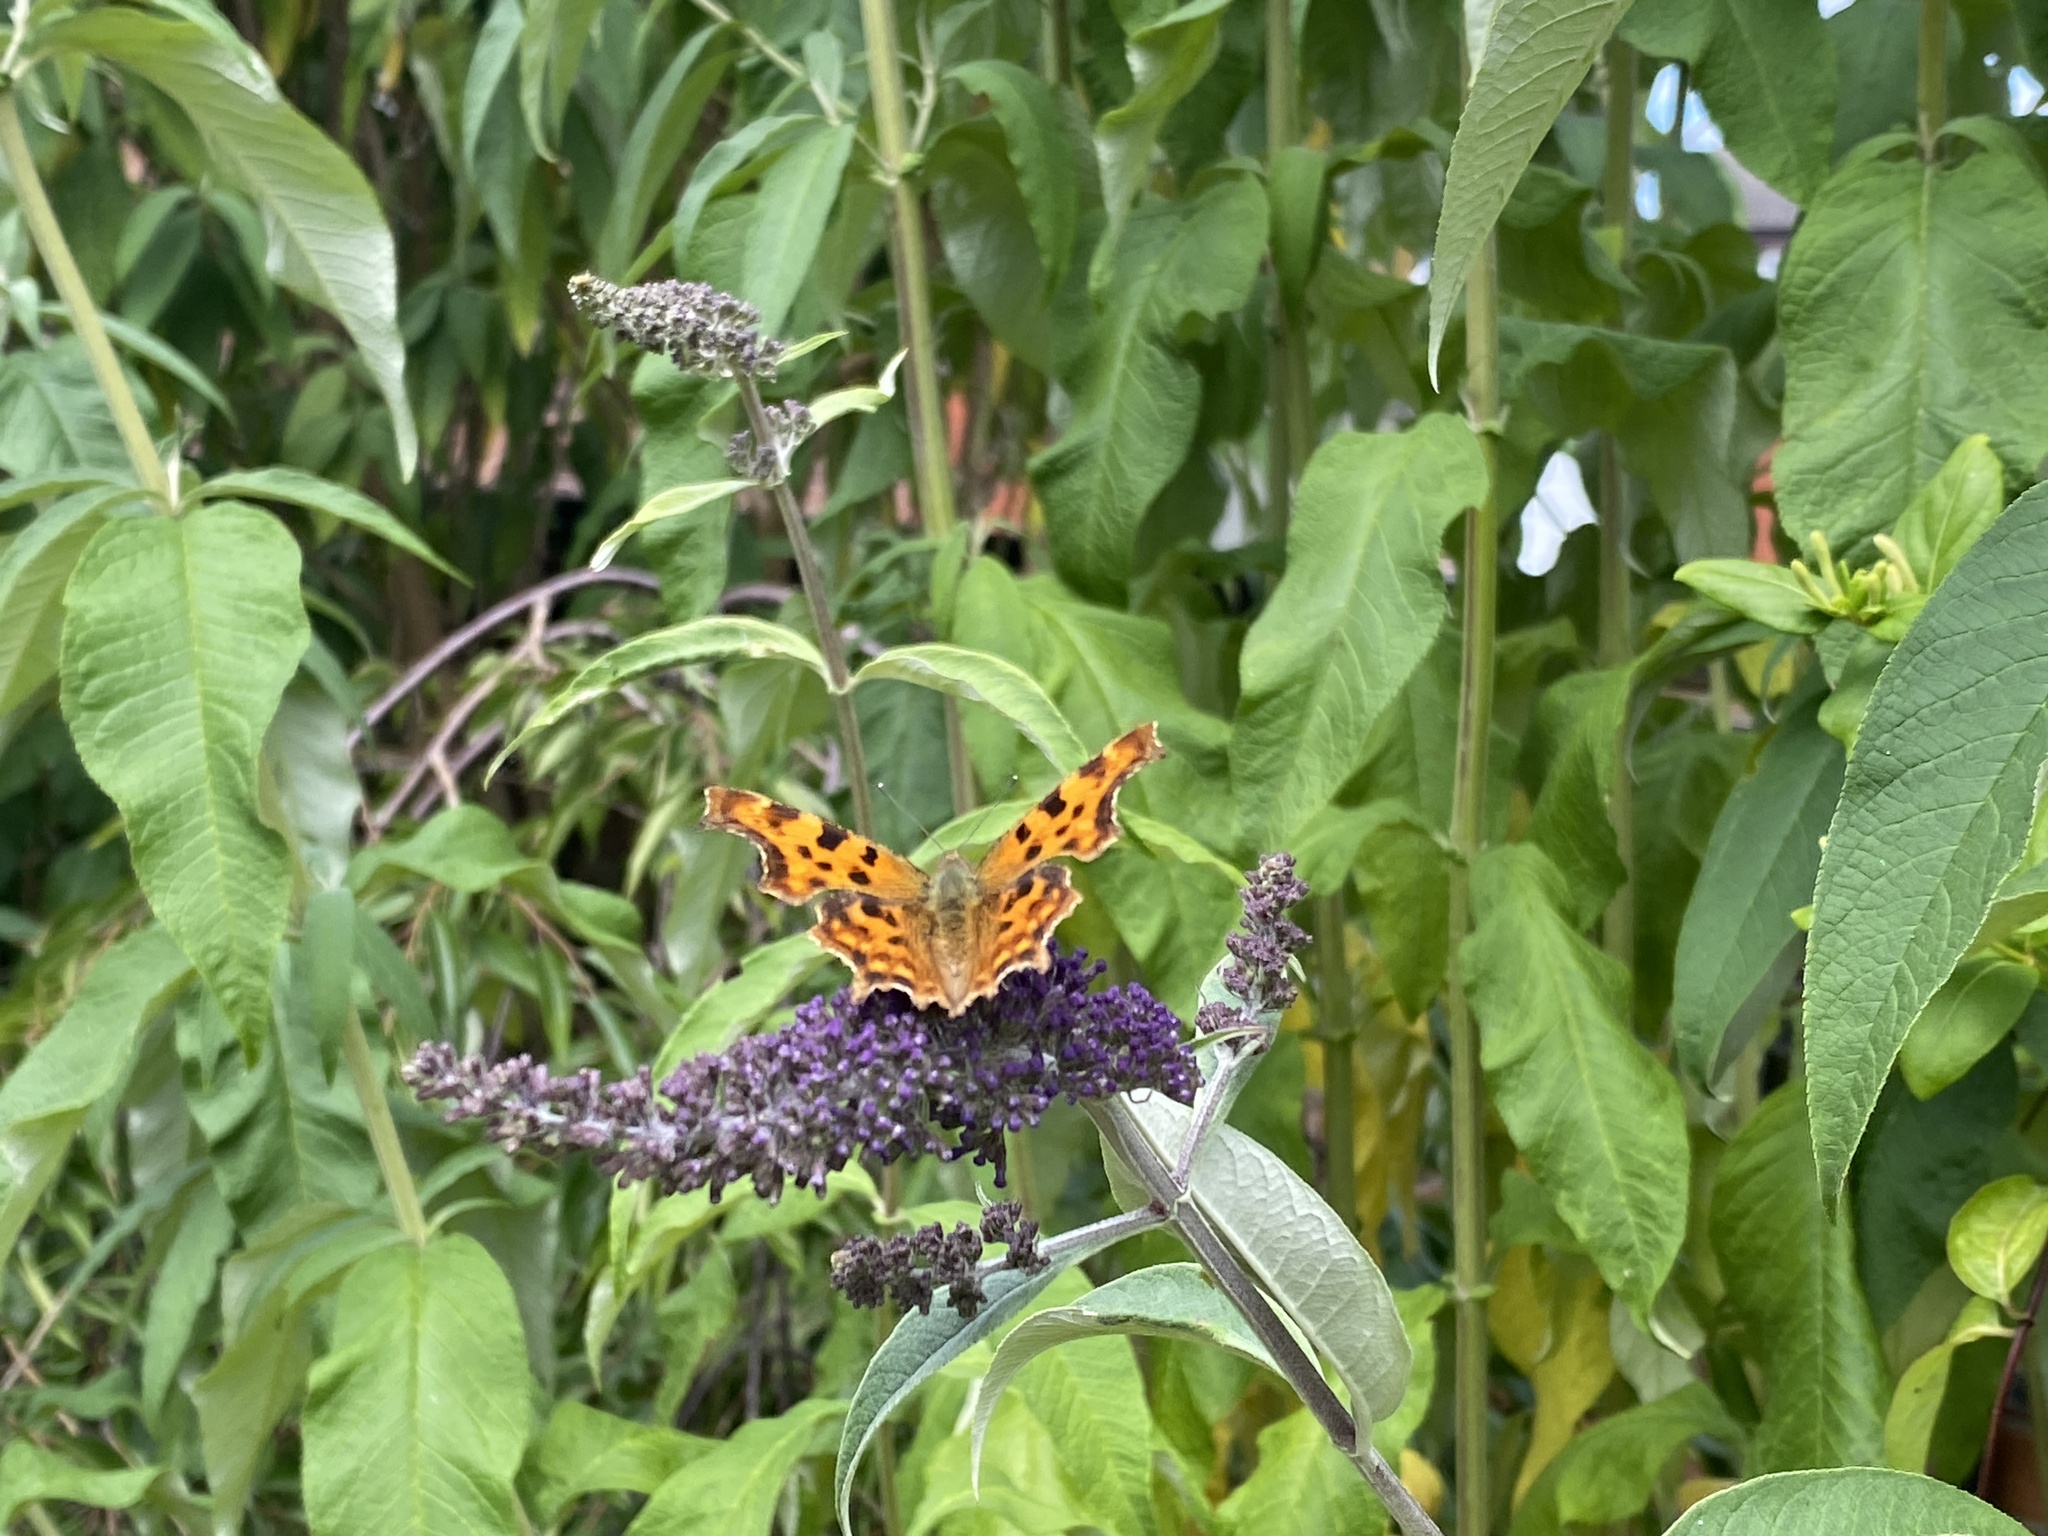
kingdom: Animalia
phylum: Arthropoda
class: Insecta
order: Lepidoptera
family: Nymphalidae
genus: Polygonia
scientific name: Polygonia c-album
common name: Comma
